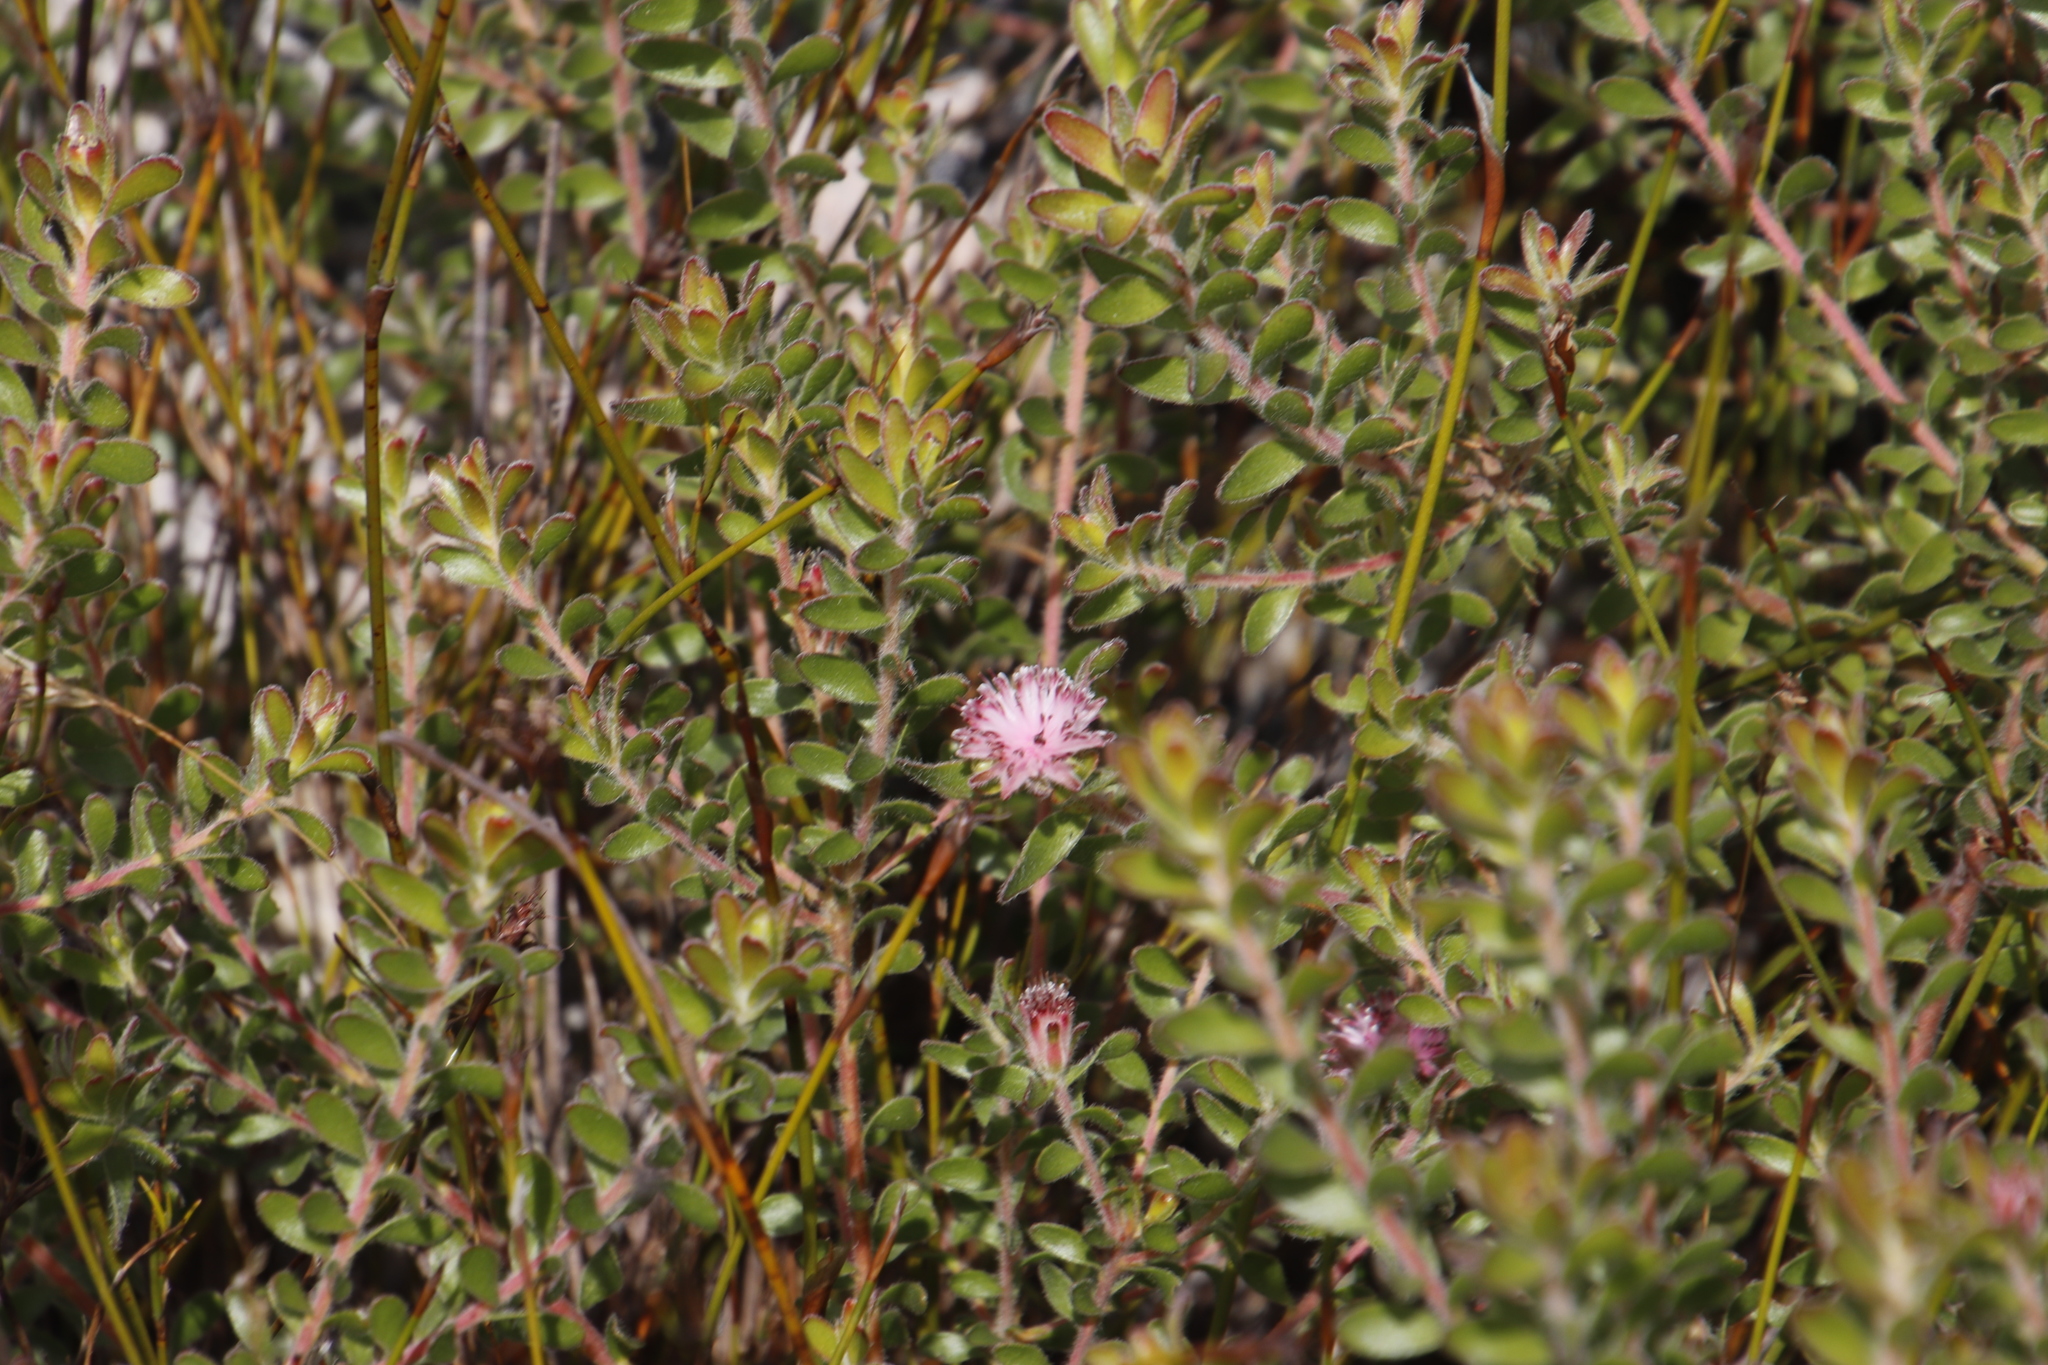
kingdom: Plantae
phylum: Tracheophyta
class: Magnoliopsida
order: Proteales
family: Proteaceae
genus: Diastella
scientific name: Diastella divaricata
